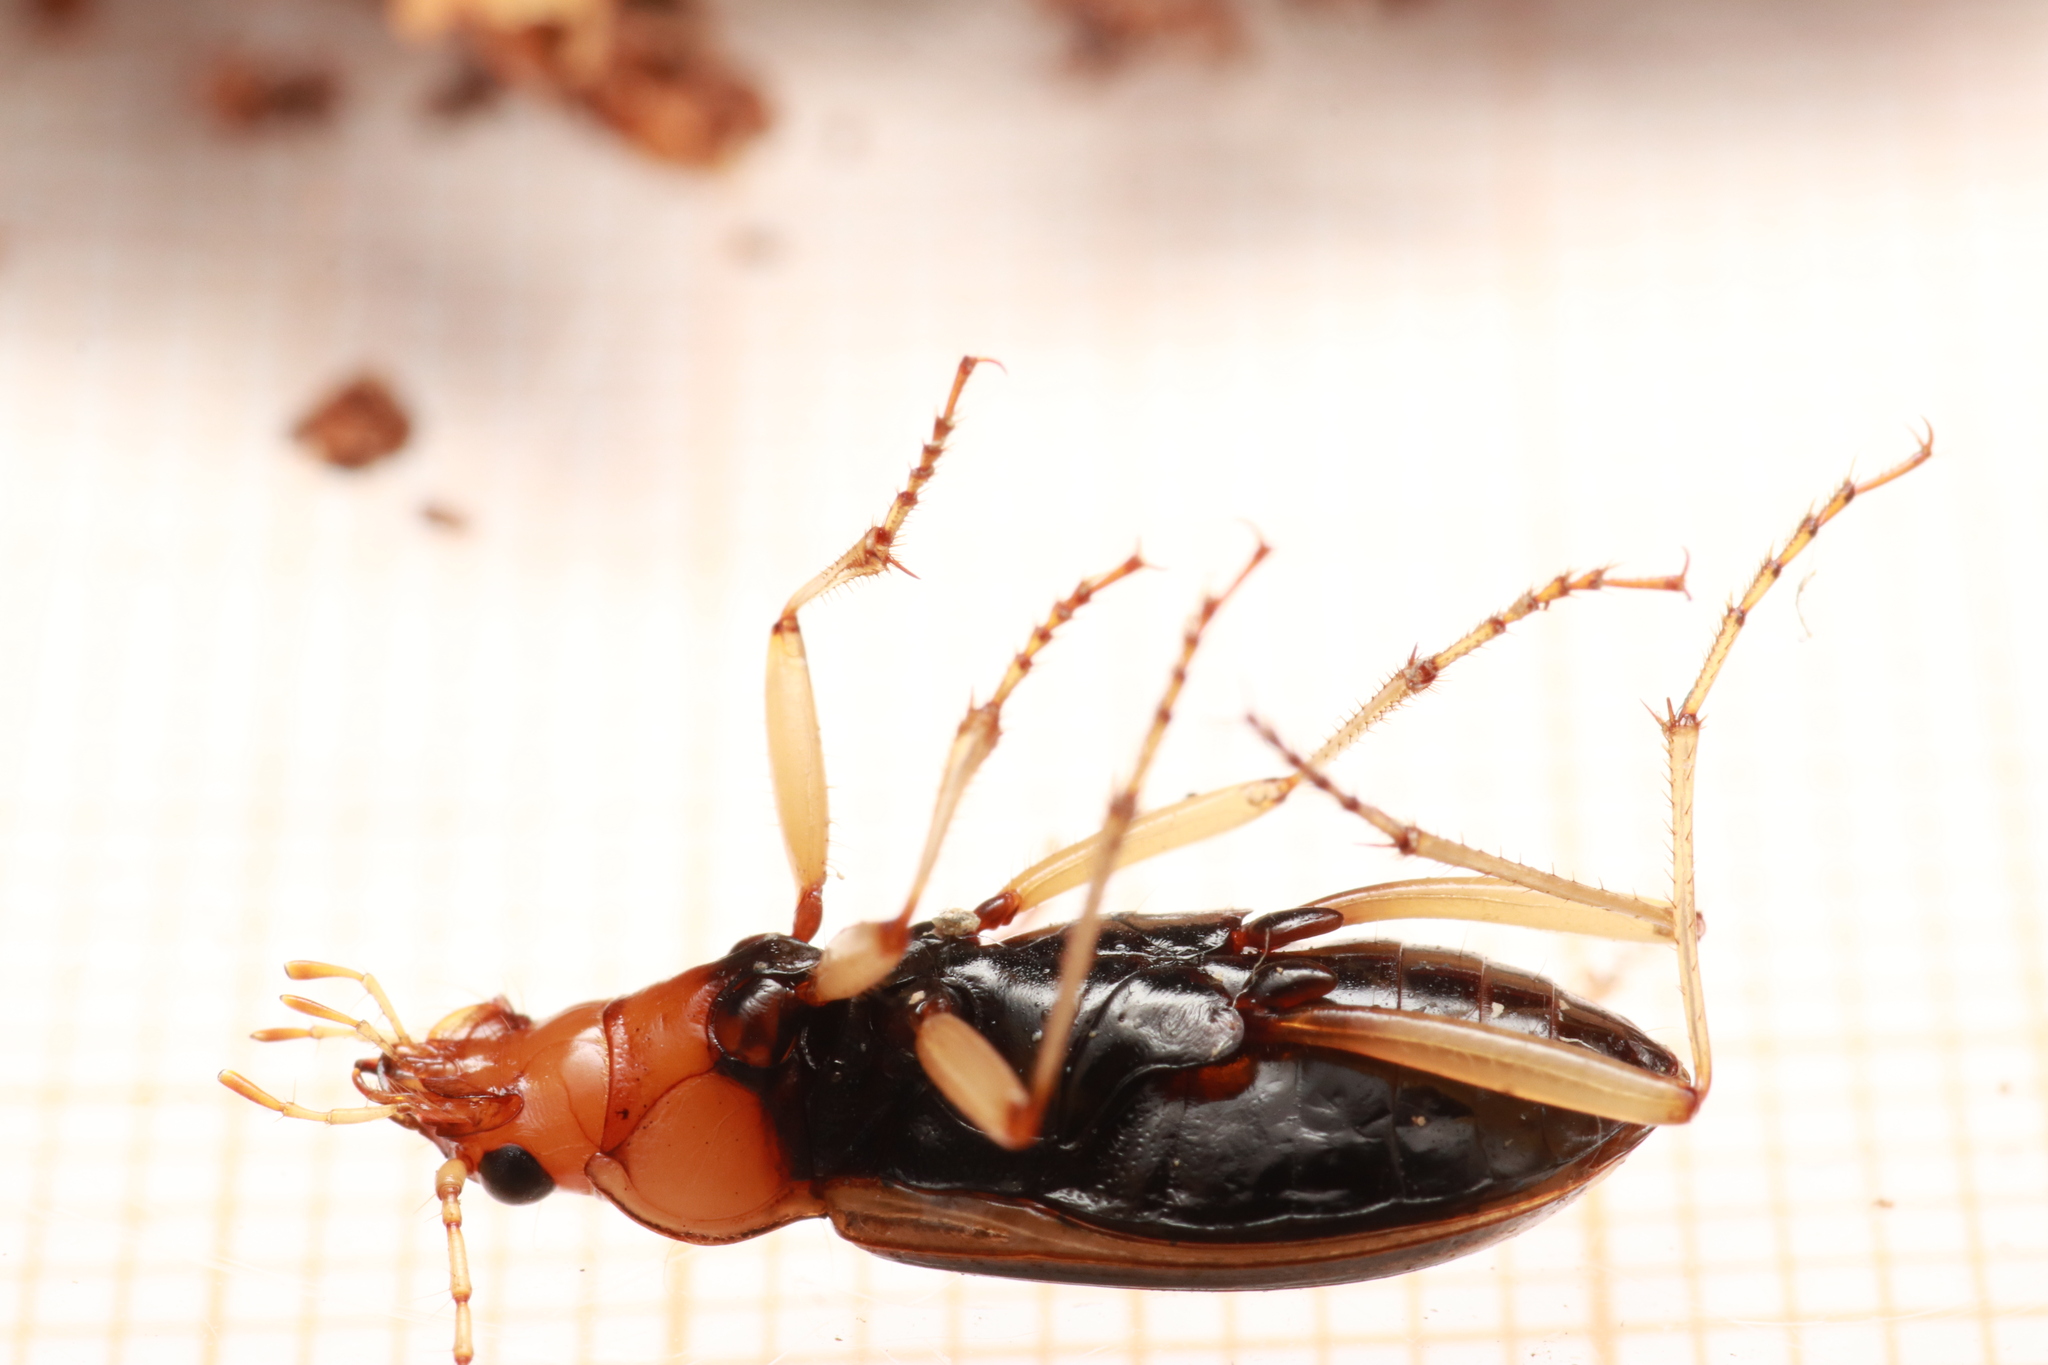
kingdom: Animalia
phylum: Arthropoda
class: Insecta
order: Coleoptera
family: Carabidae
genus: Nebria
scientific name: Nebria psammodes
